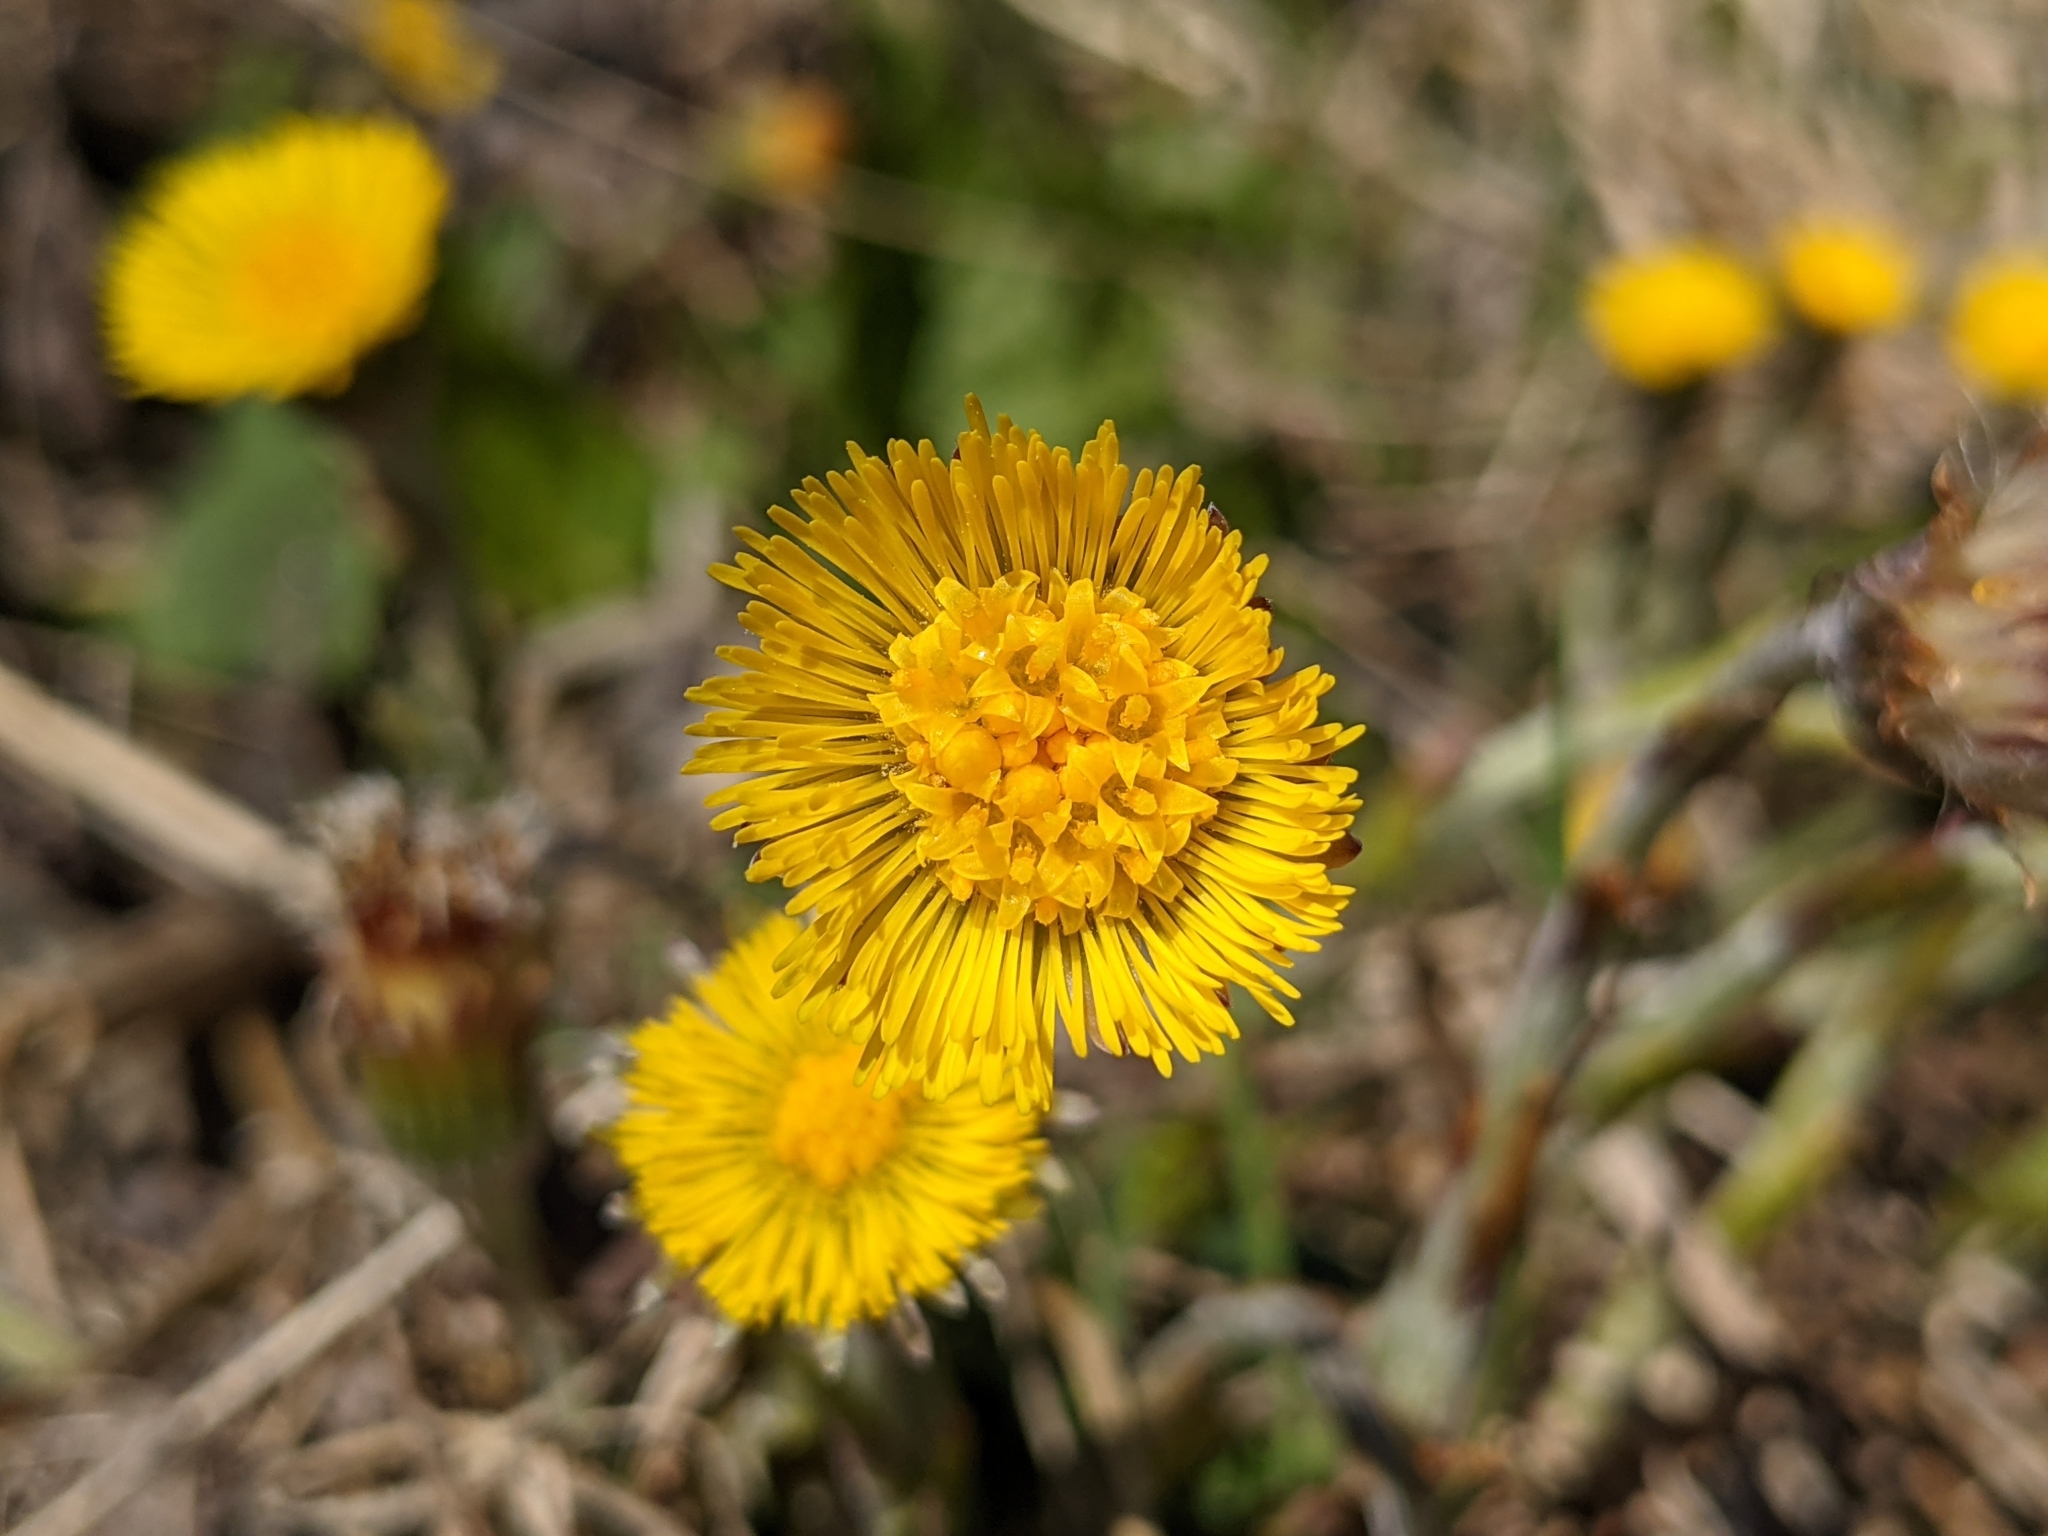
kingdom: Plantae
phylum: Tracheophyta
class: Magnoliopsida
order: Asterales
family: Asteraceae
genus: Tussilago
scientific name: Tussilago farfara
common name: Coltsfoot
